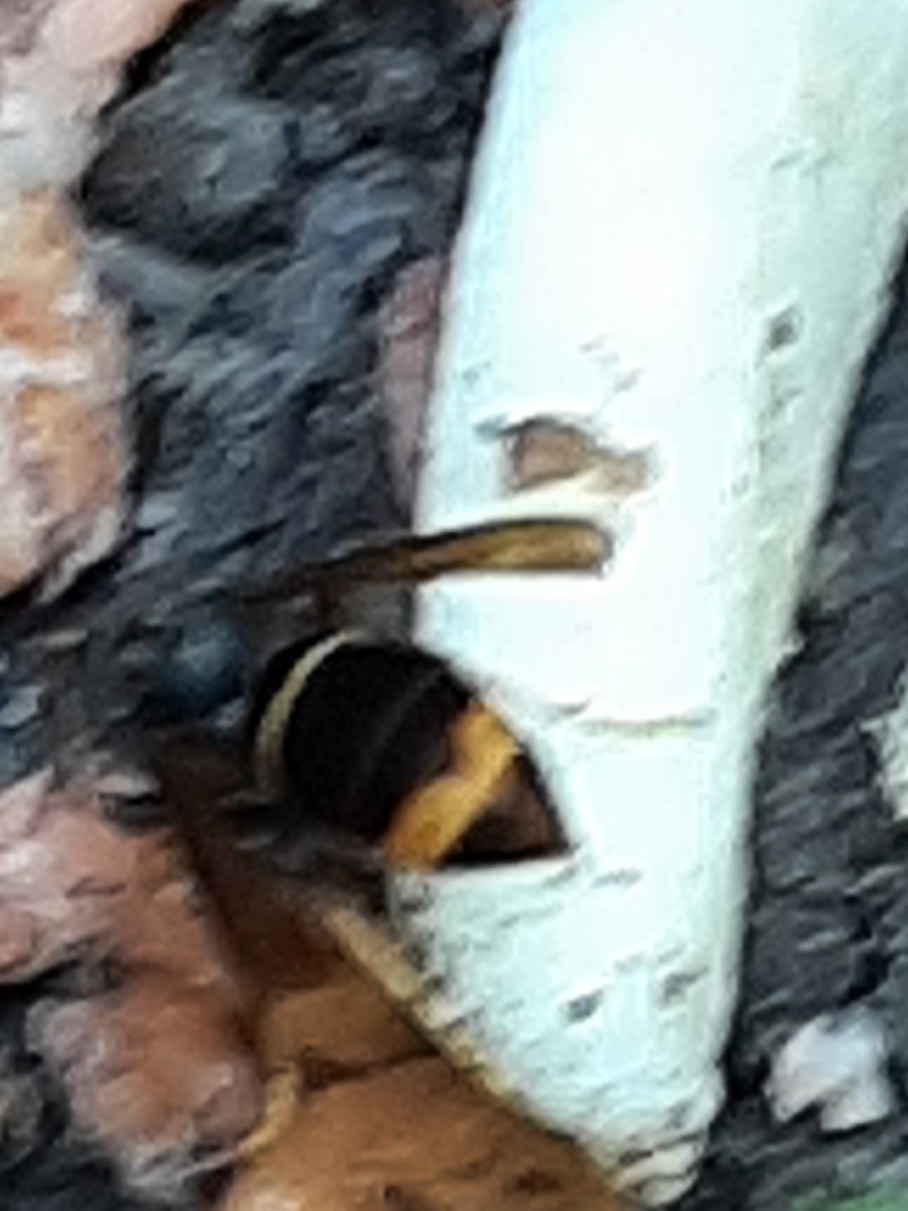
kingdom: Animalia
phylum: Arthropoda
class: Insecta
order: Hymenoptera
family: Vespidae
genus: Vespa
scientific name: Vespa velutina
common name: Asian hornet
